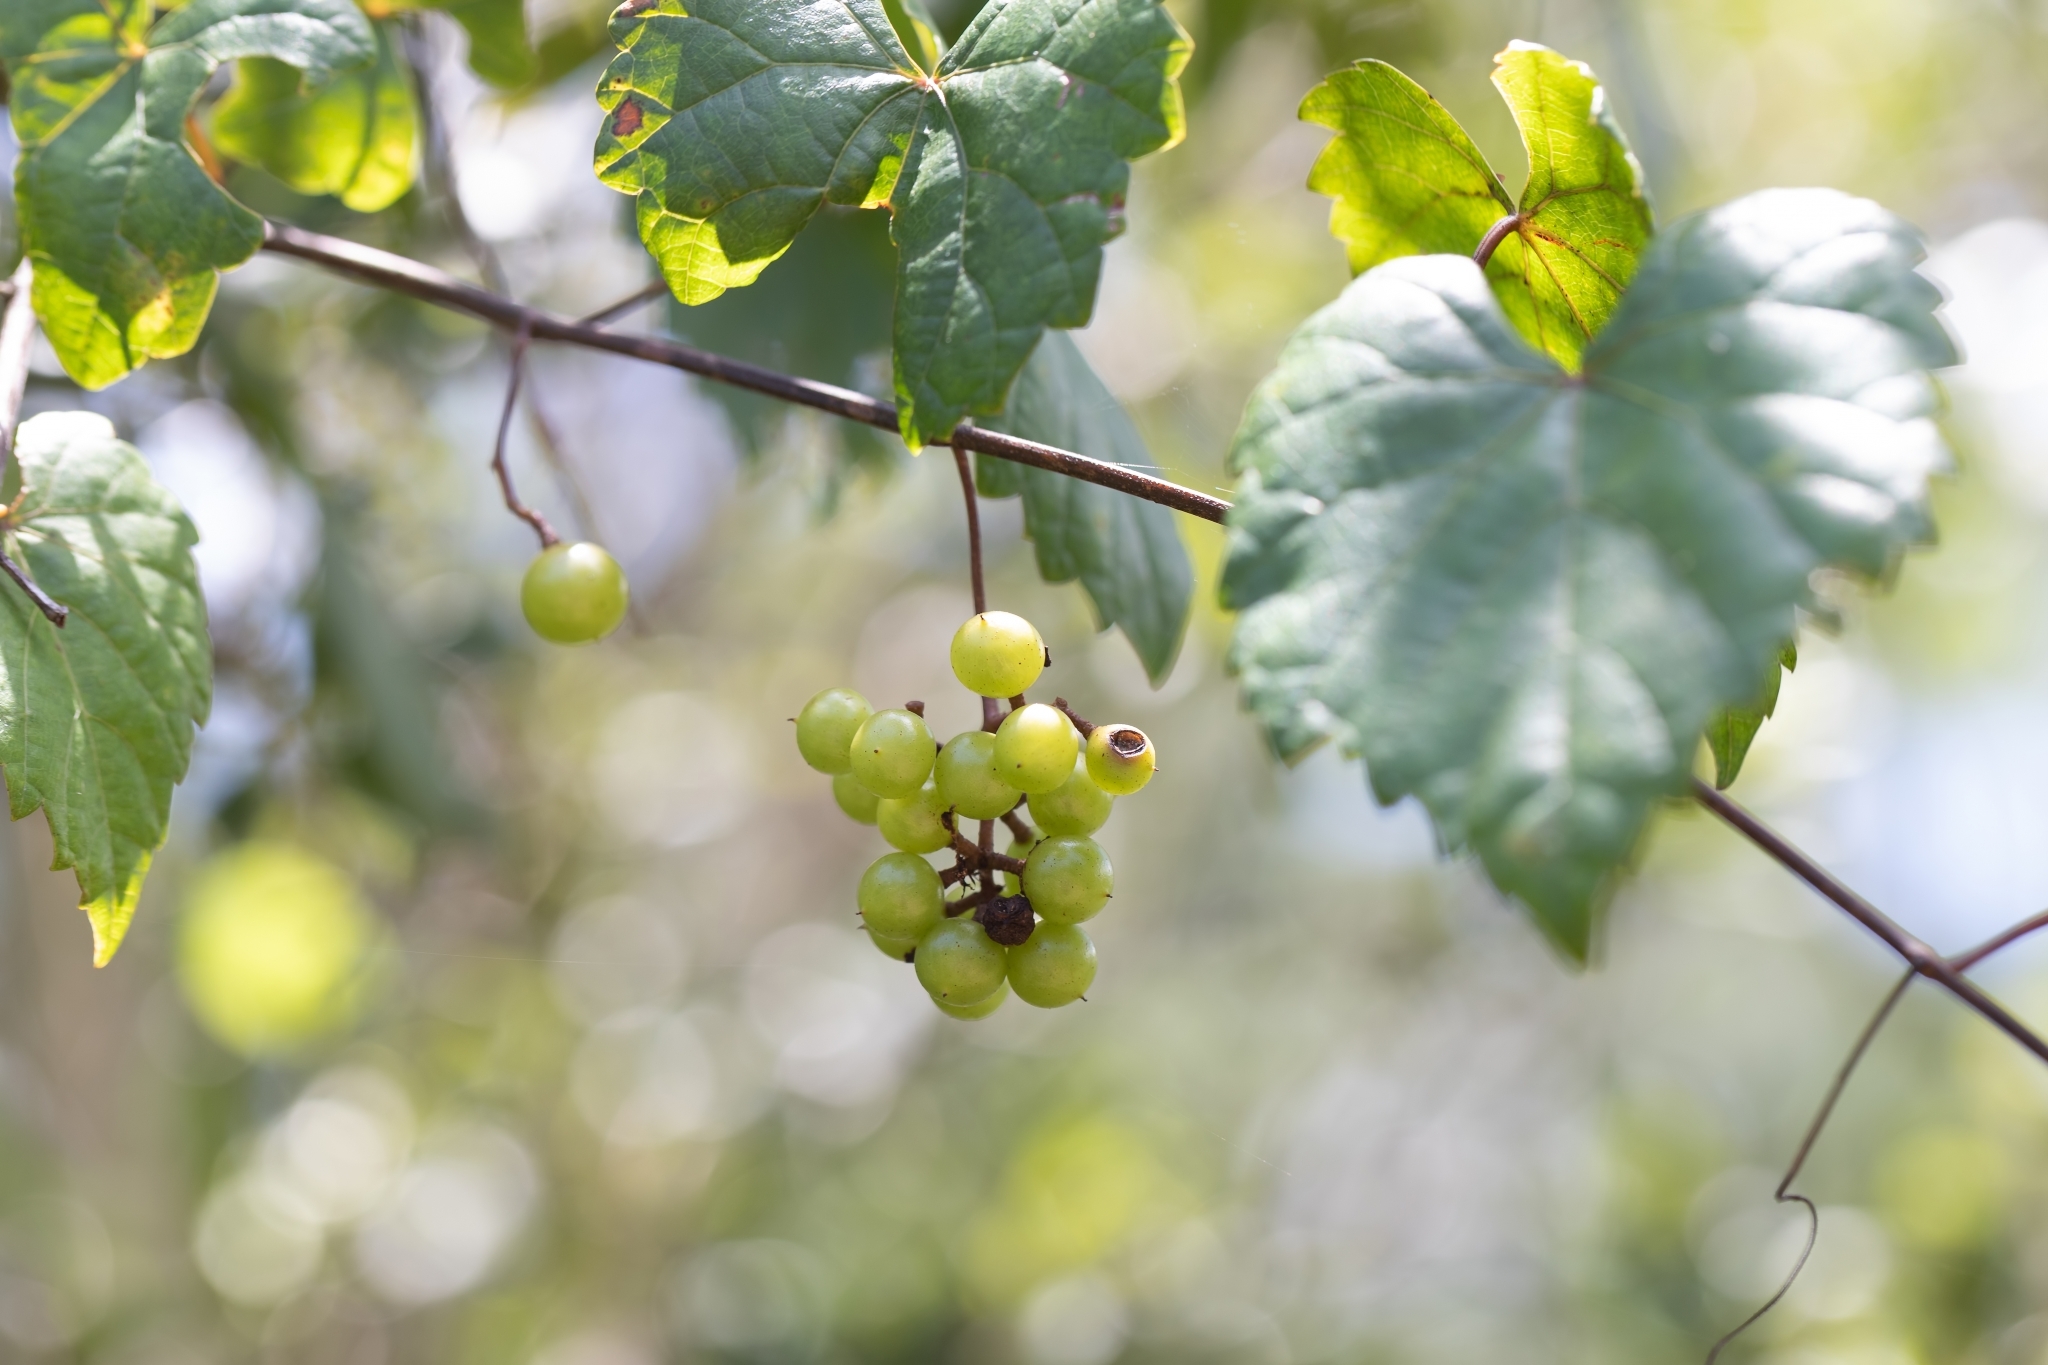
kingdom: Plantae
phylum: Tracheophyta
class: Magnoliopsida
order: Vitales
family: Vitaceae
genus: Vitis
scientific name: Vitis rotundifolia
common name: Muscadine grape
